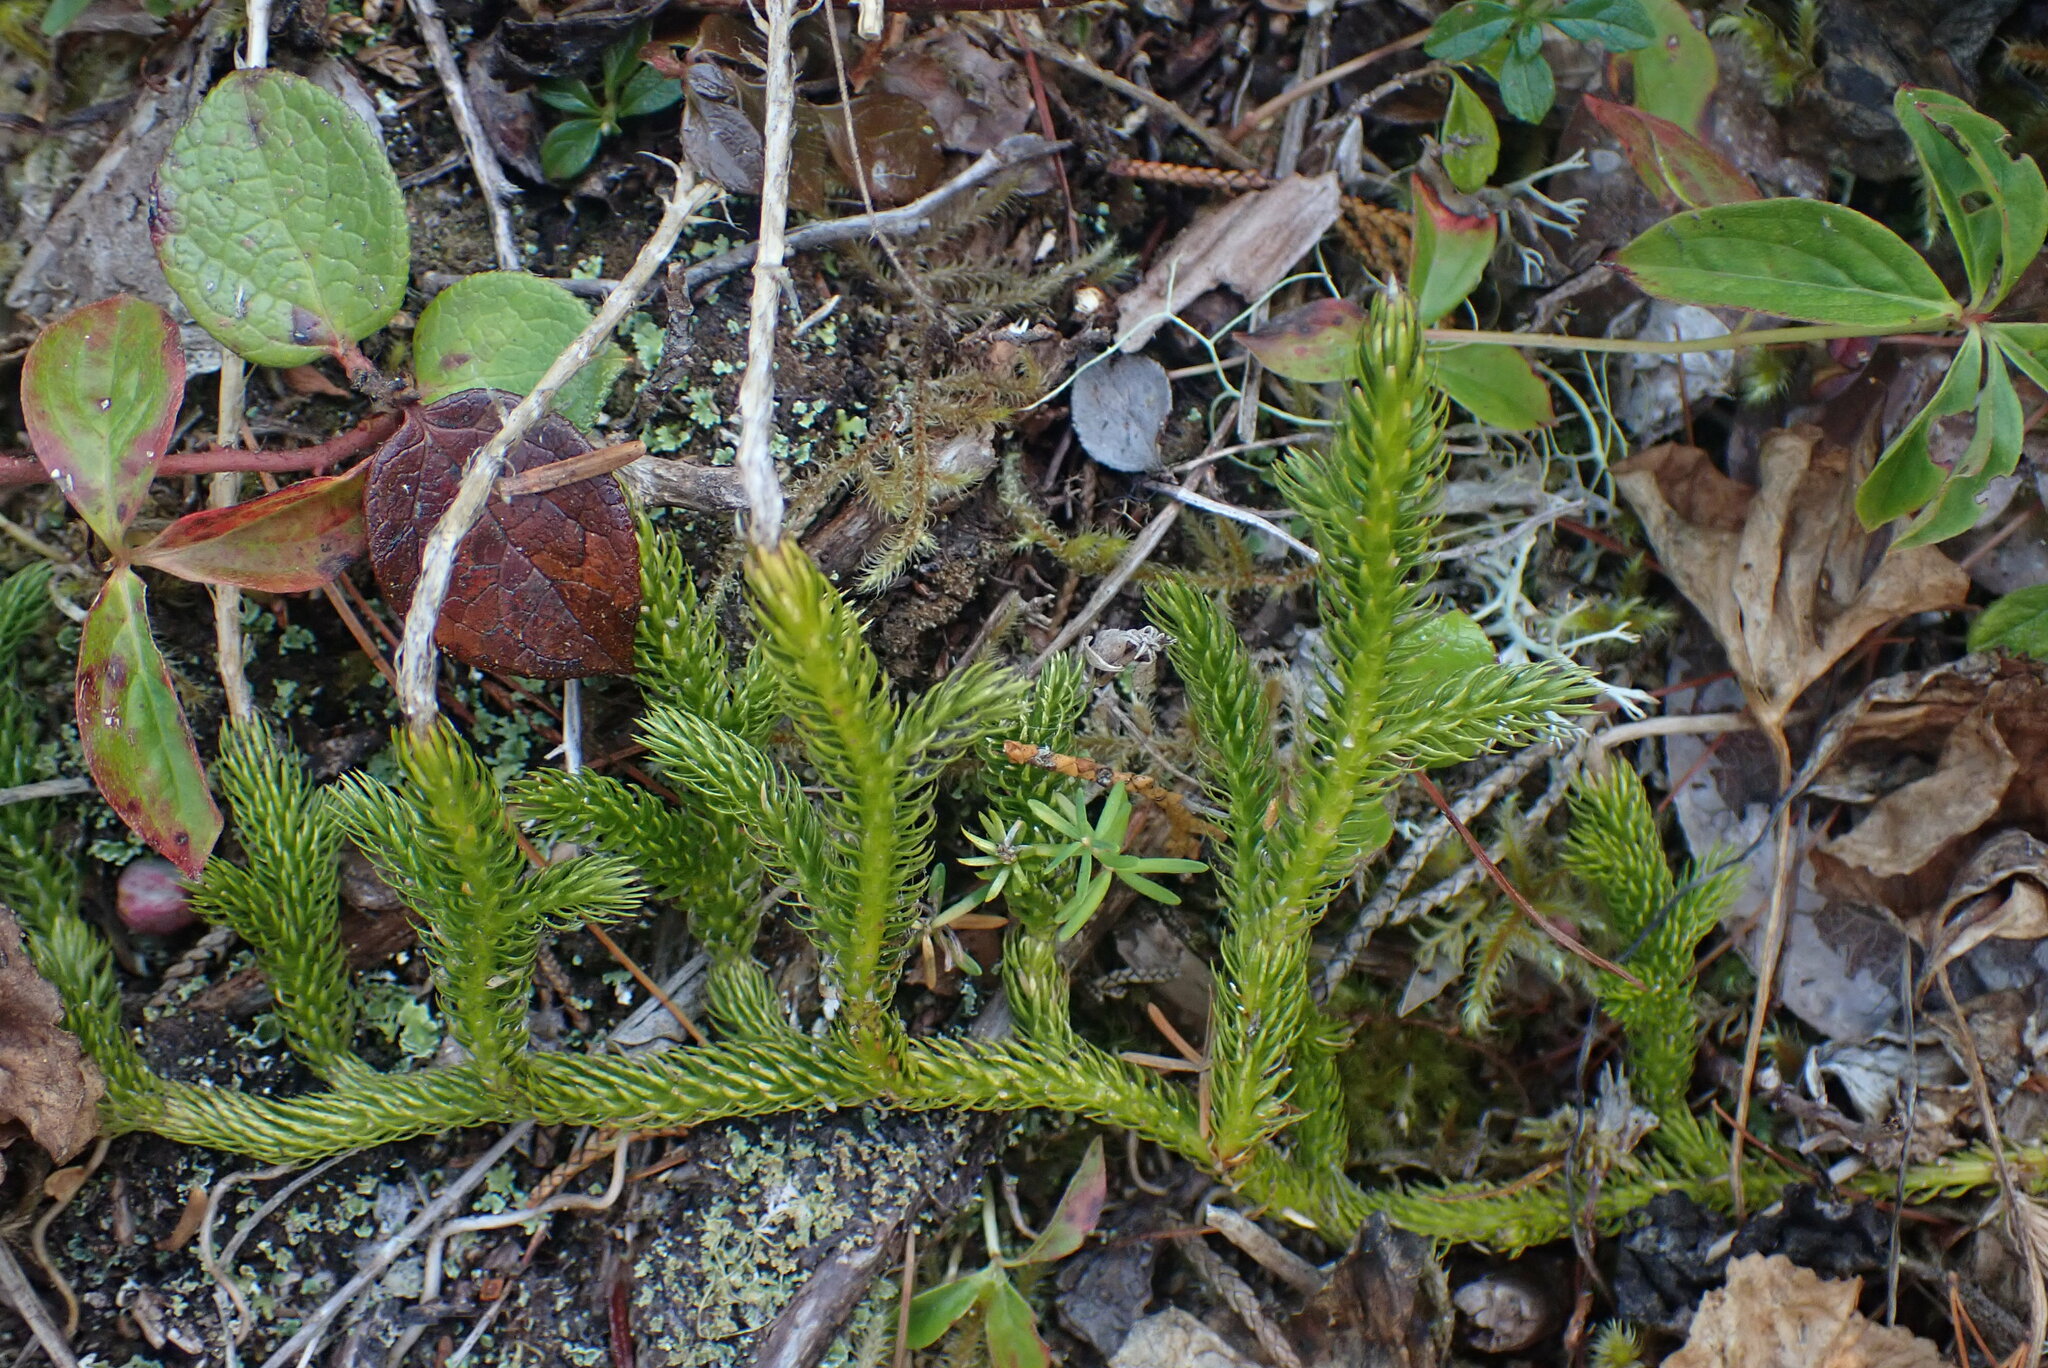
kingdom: Plantae
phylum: Tracheophyta
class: Lycopodiopsida
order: Lycopodiales
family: Lycopodiaceae
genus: Lycopodium
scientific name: Lycopodium clavatum
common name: Stag's-horn clubmoss
